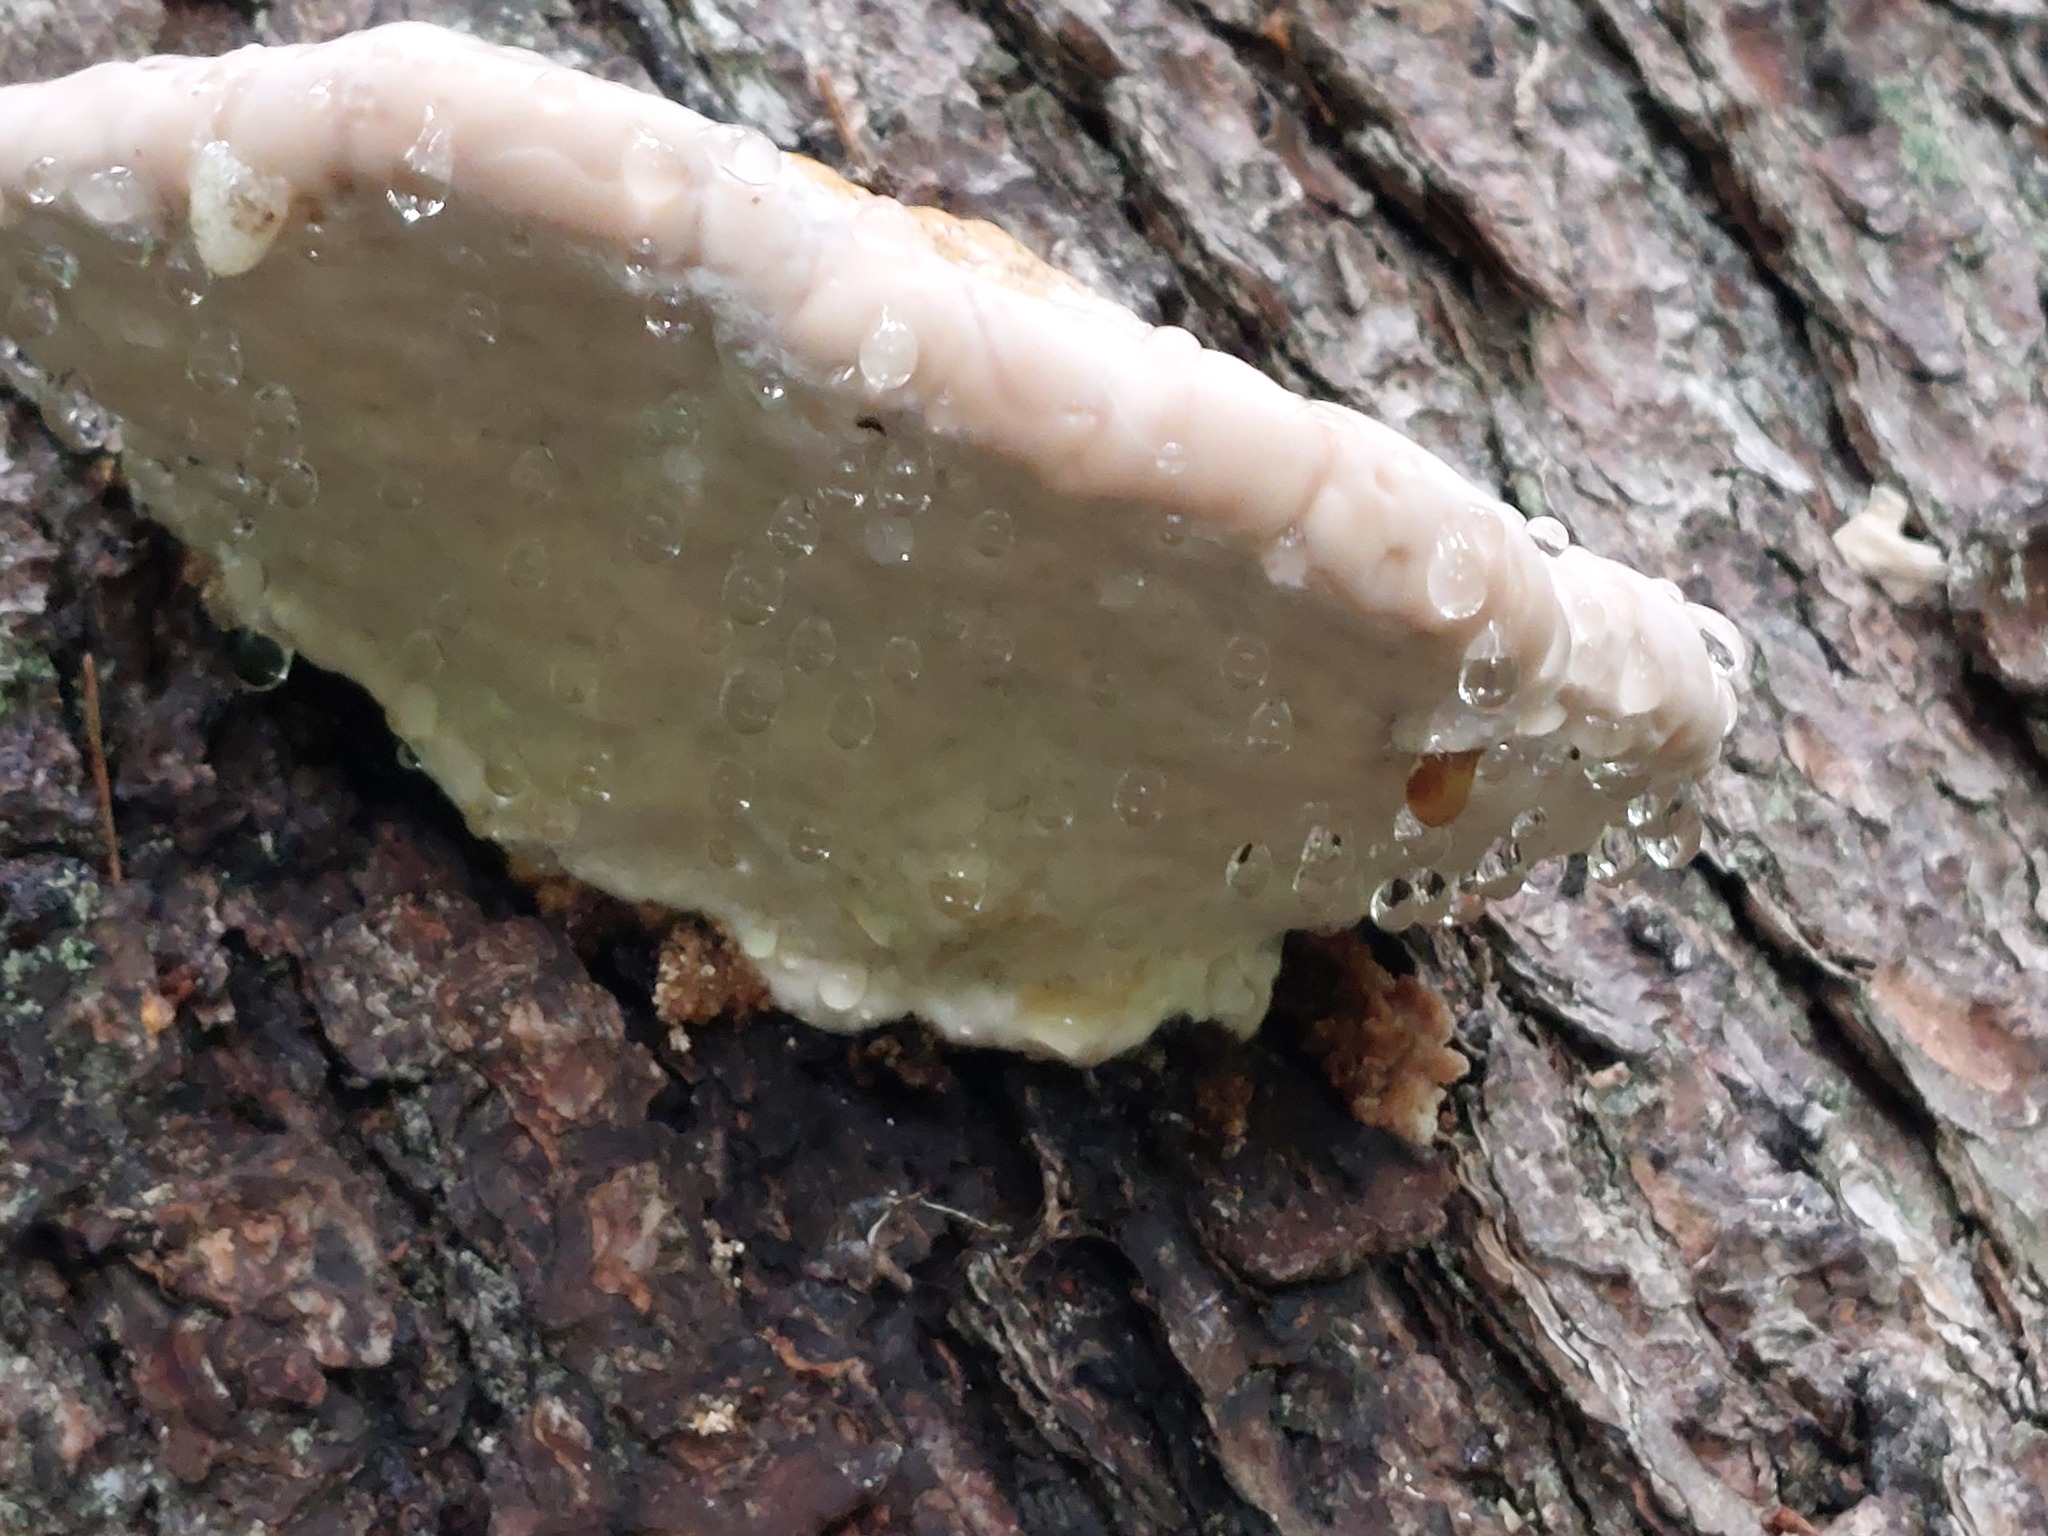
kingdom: Fungi
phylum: Basidiomycota
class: Agaricomycetes
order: Polyporales
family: Fomitopsidaceae
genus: Fomitopsis
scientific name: Fomitopsis pinicola
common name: Red-belted bracket
